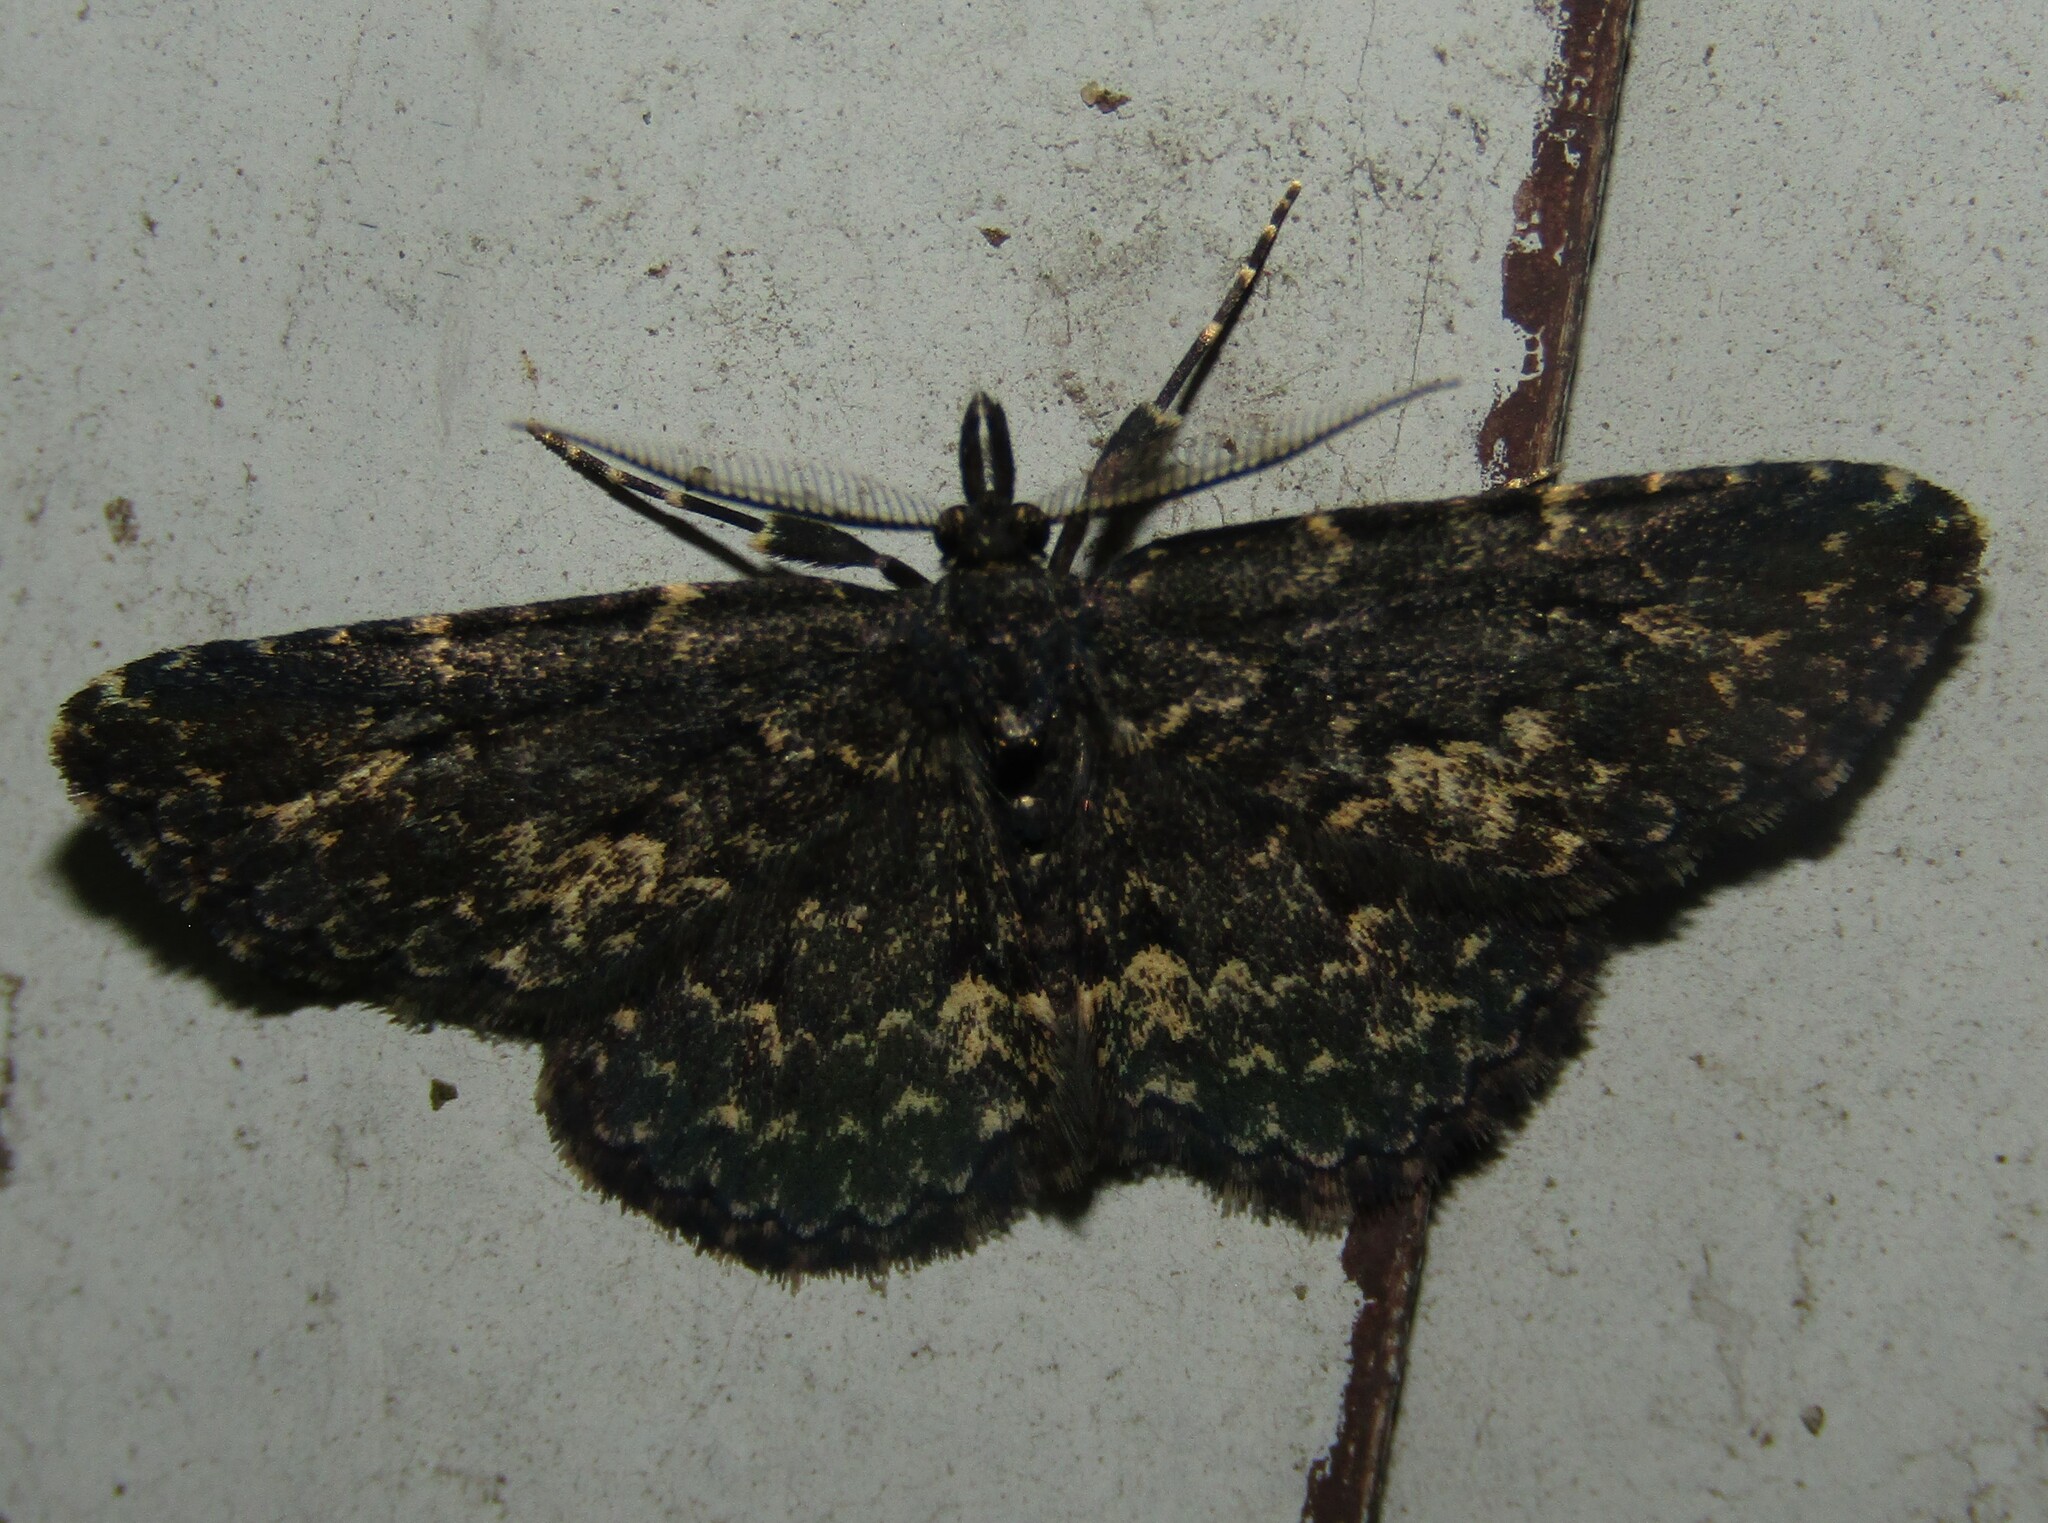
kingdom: Animalia
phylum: Arthropoda
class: Insecta
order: Lepidoptera
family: Erebidae
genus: Parascotia
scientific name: Parascotia fuliginaria
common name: Waved black
